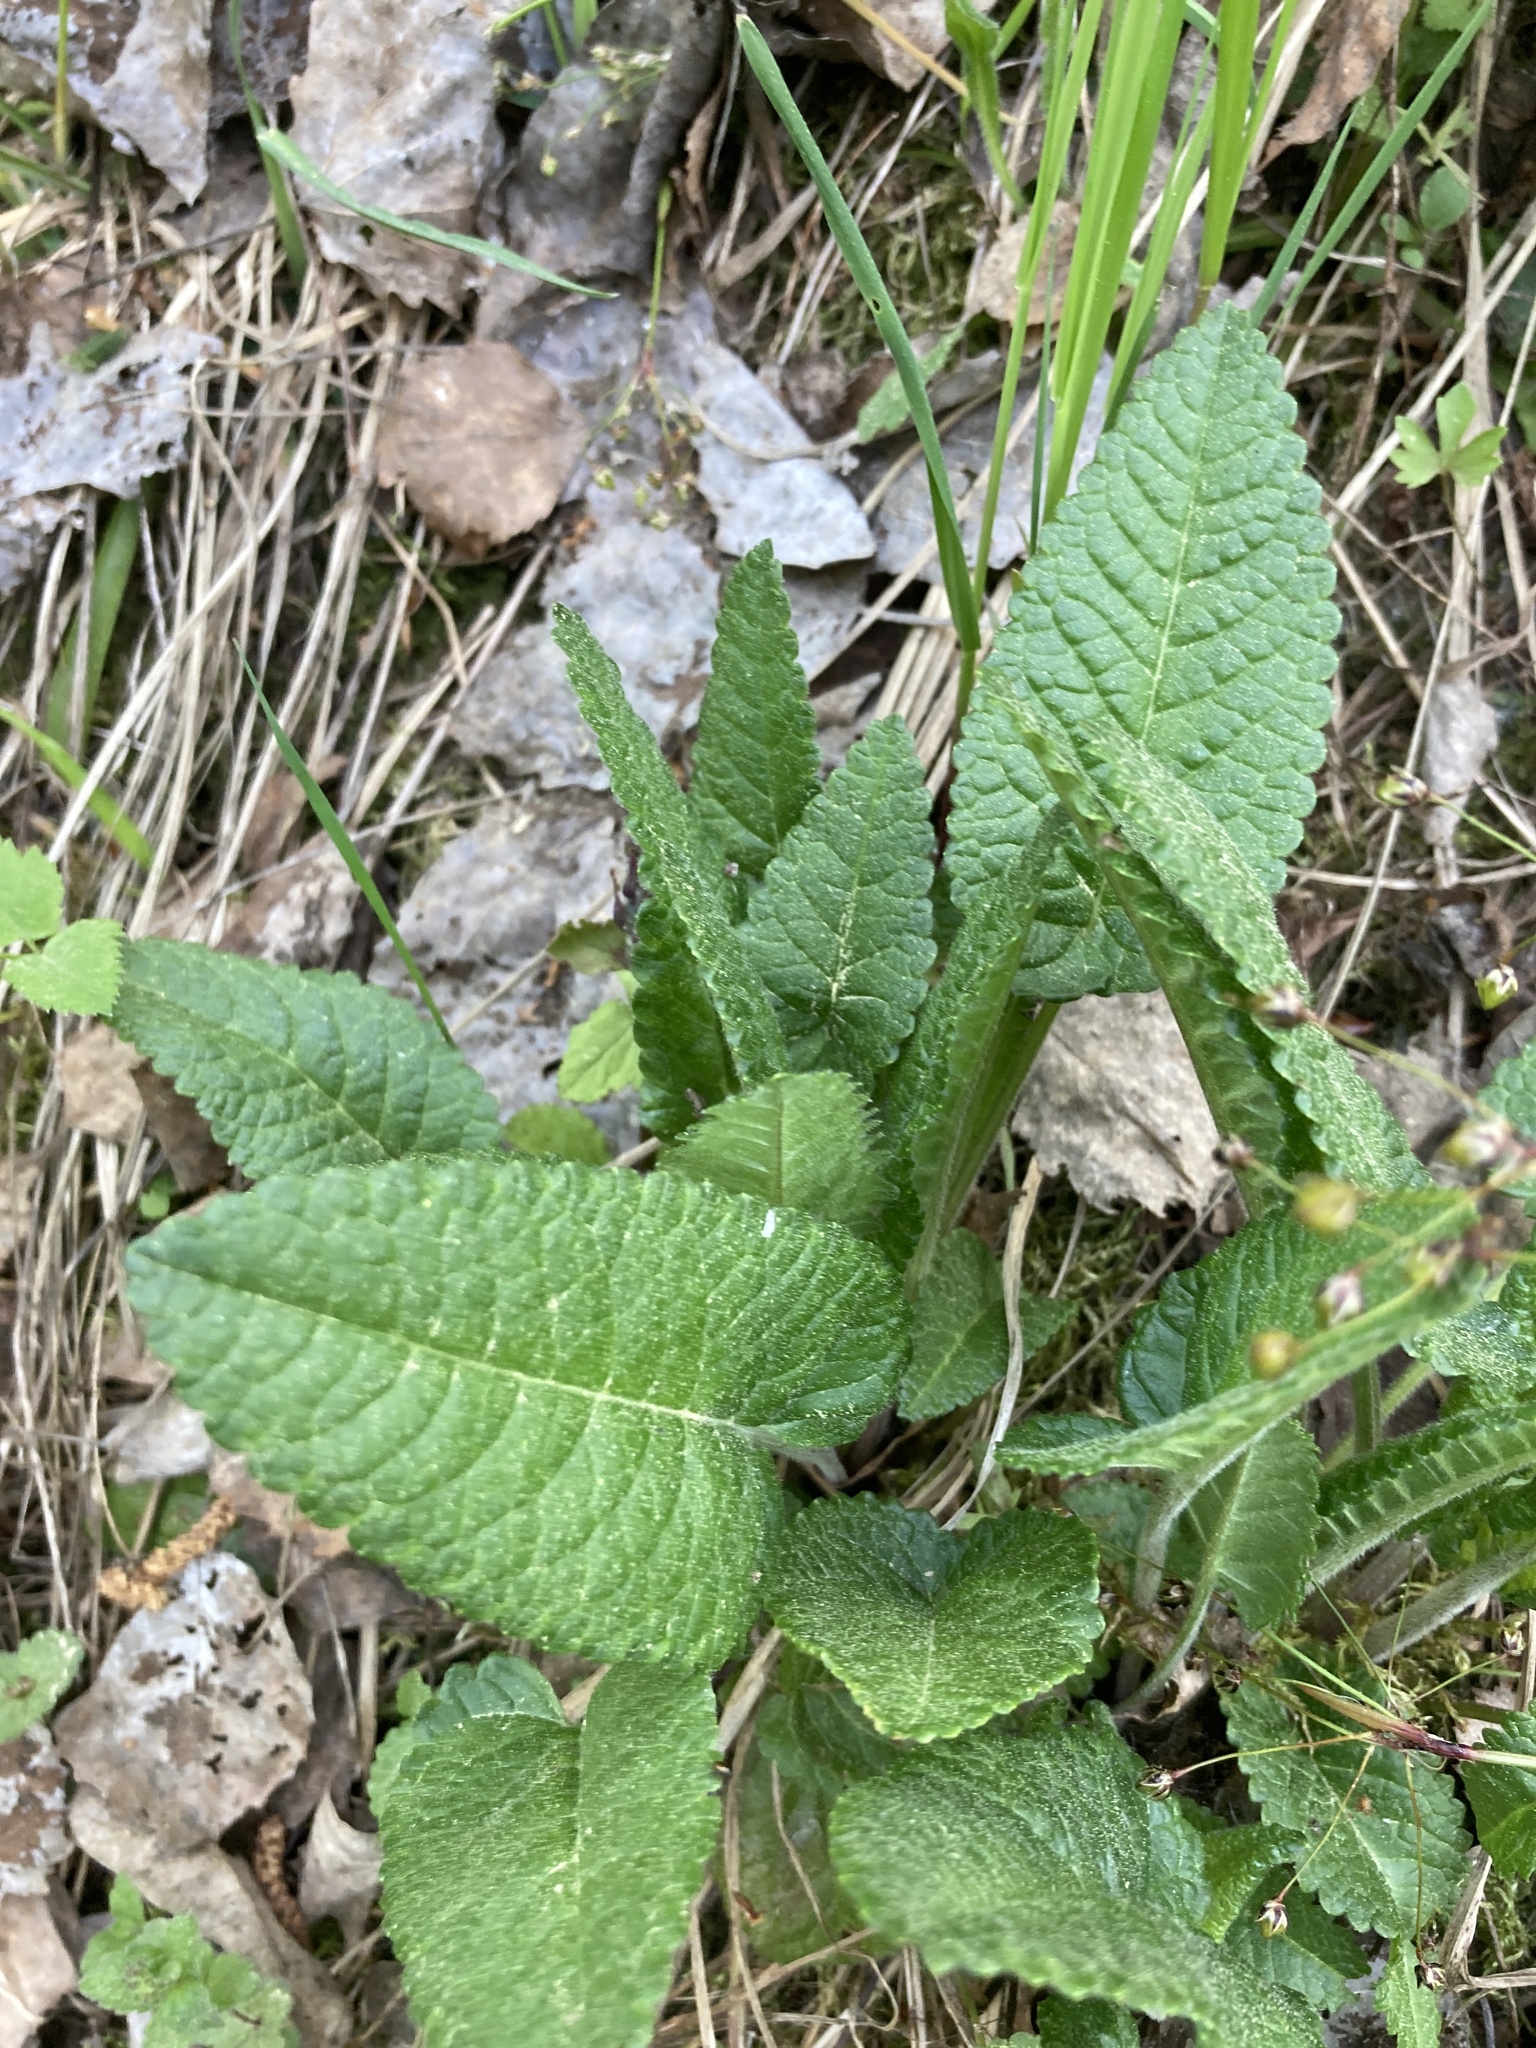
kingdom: Plantae
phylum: Tracheophyta
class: Magnoliopsida
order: Lamiales
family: Lamiaceae
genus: Betonica
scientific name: Betonica officinalis
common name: Bishop's-wort
